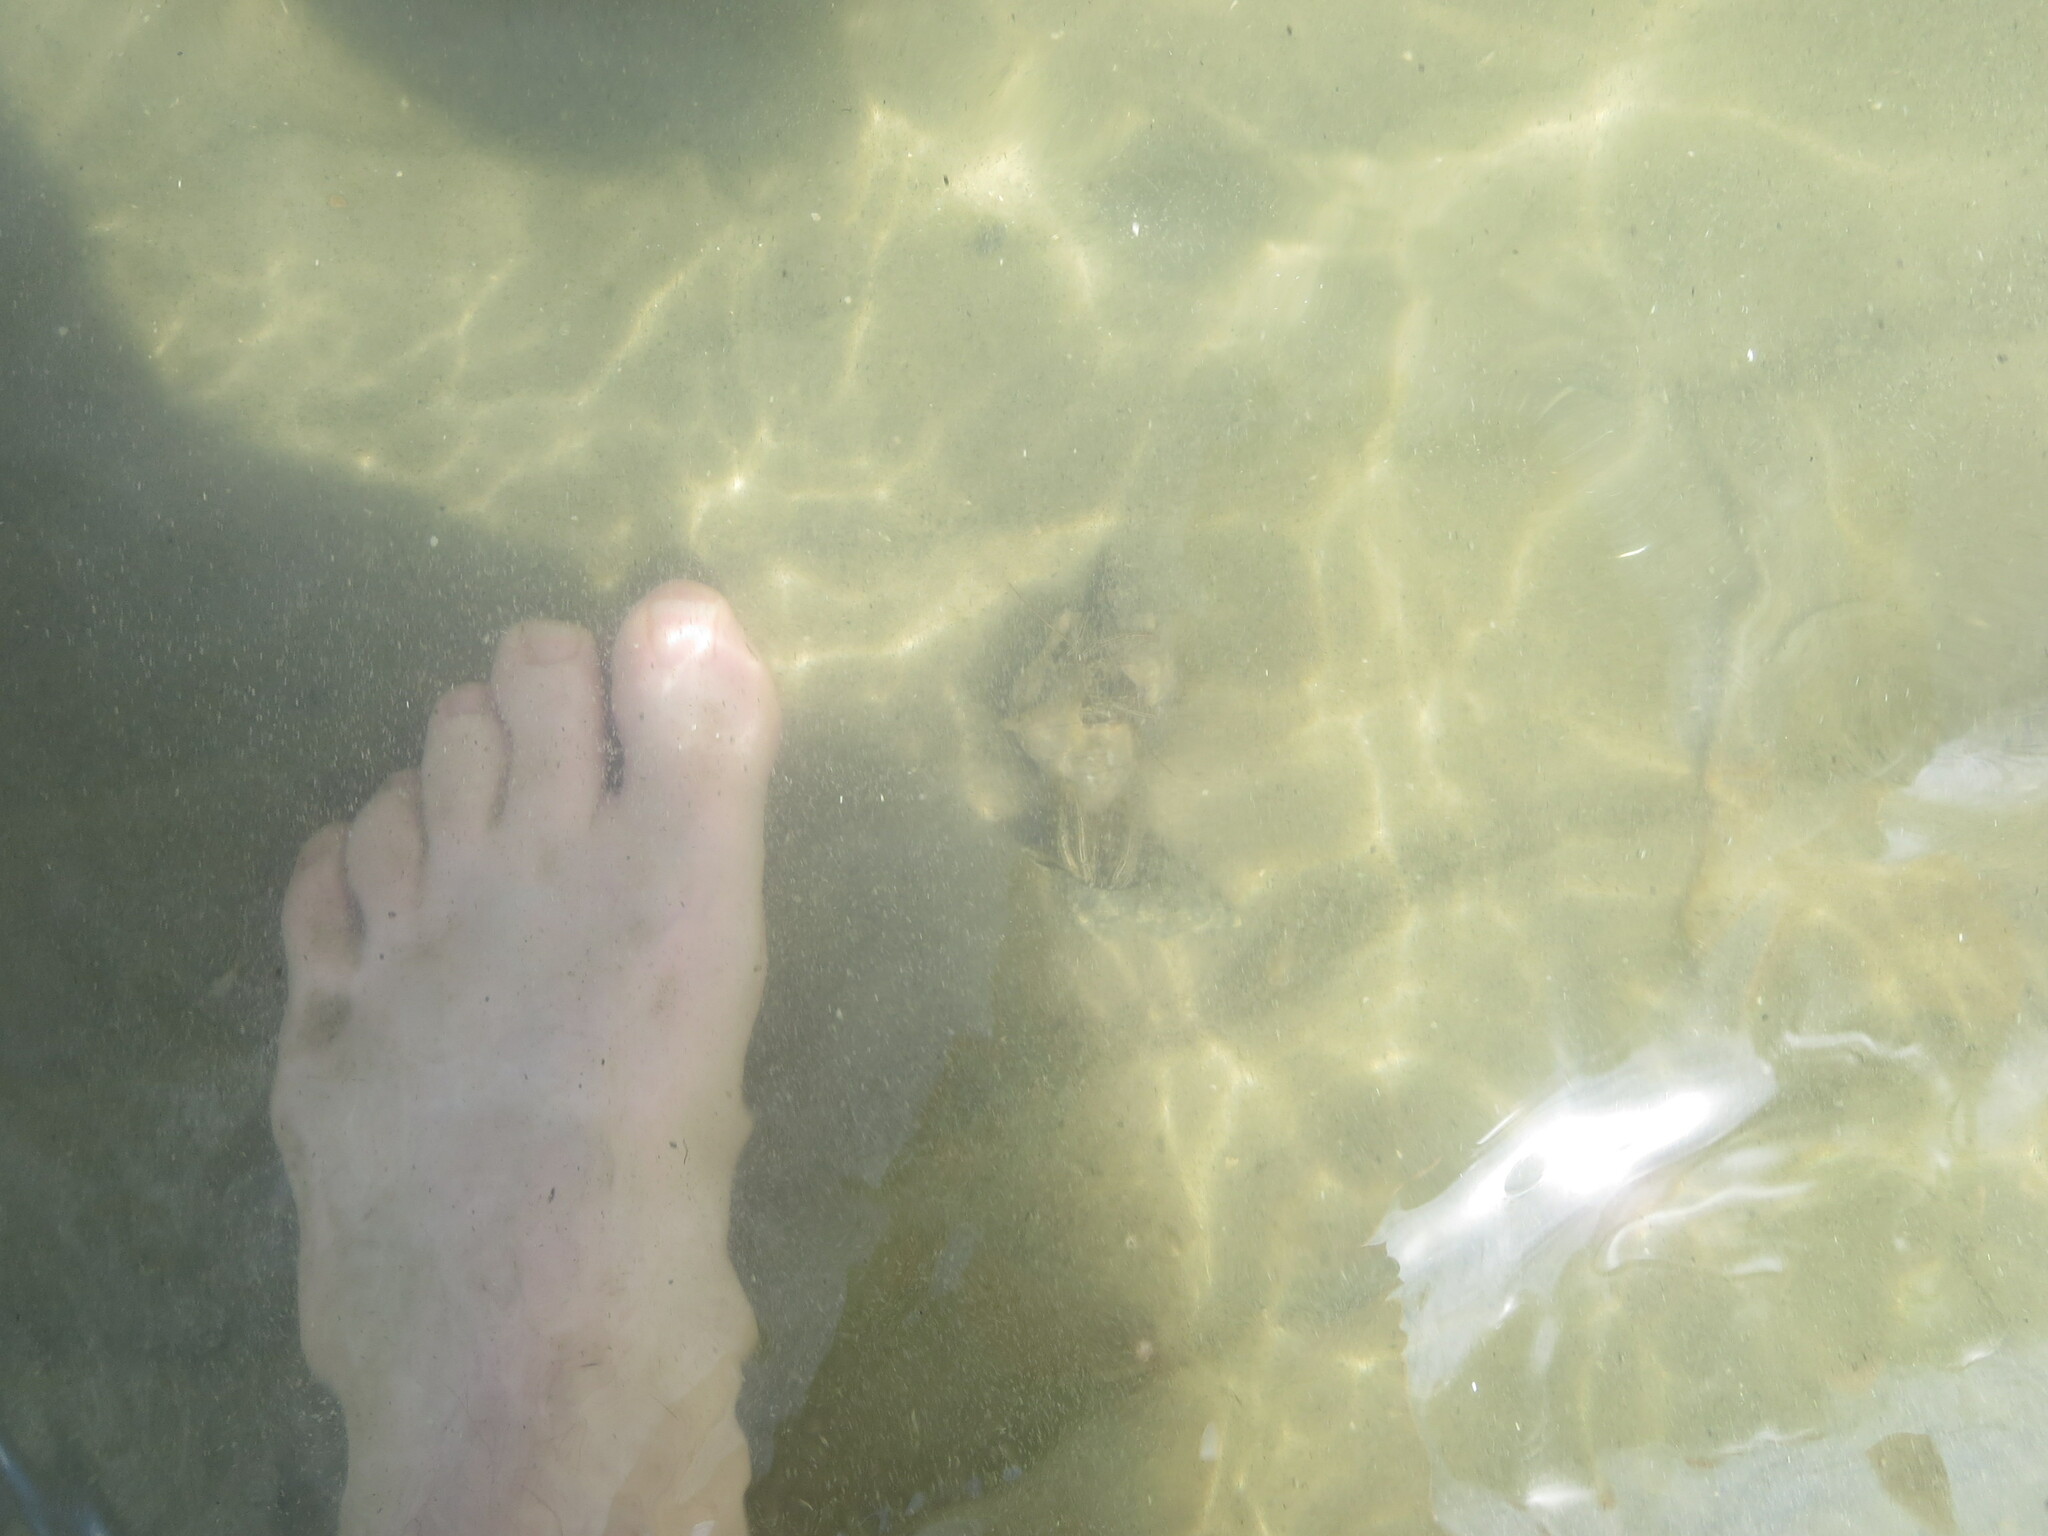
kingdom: Animalia
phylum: Arthropoda
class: Malacostraca
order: Decapoda
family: Diogenidae
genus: Clibanarius
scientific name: Clibanarius vittatus
